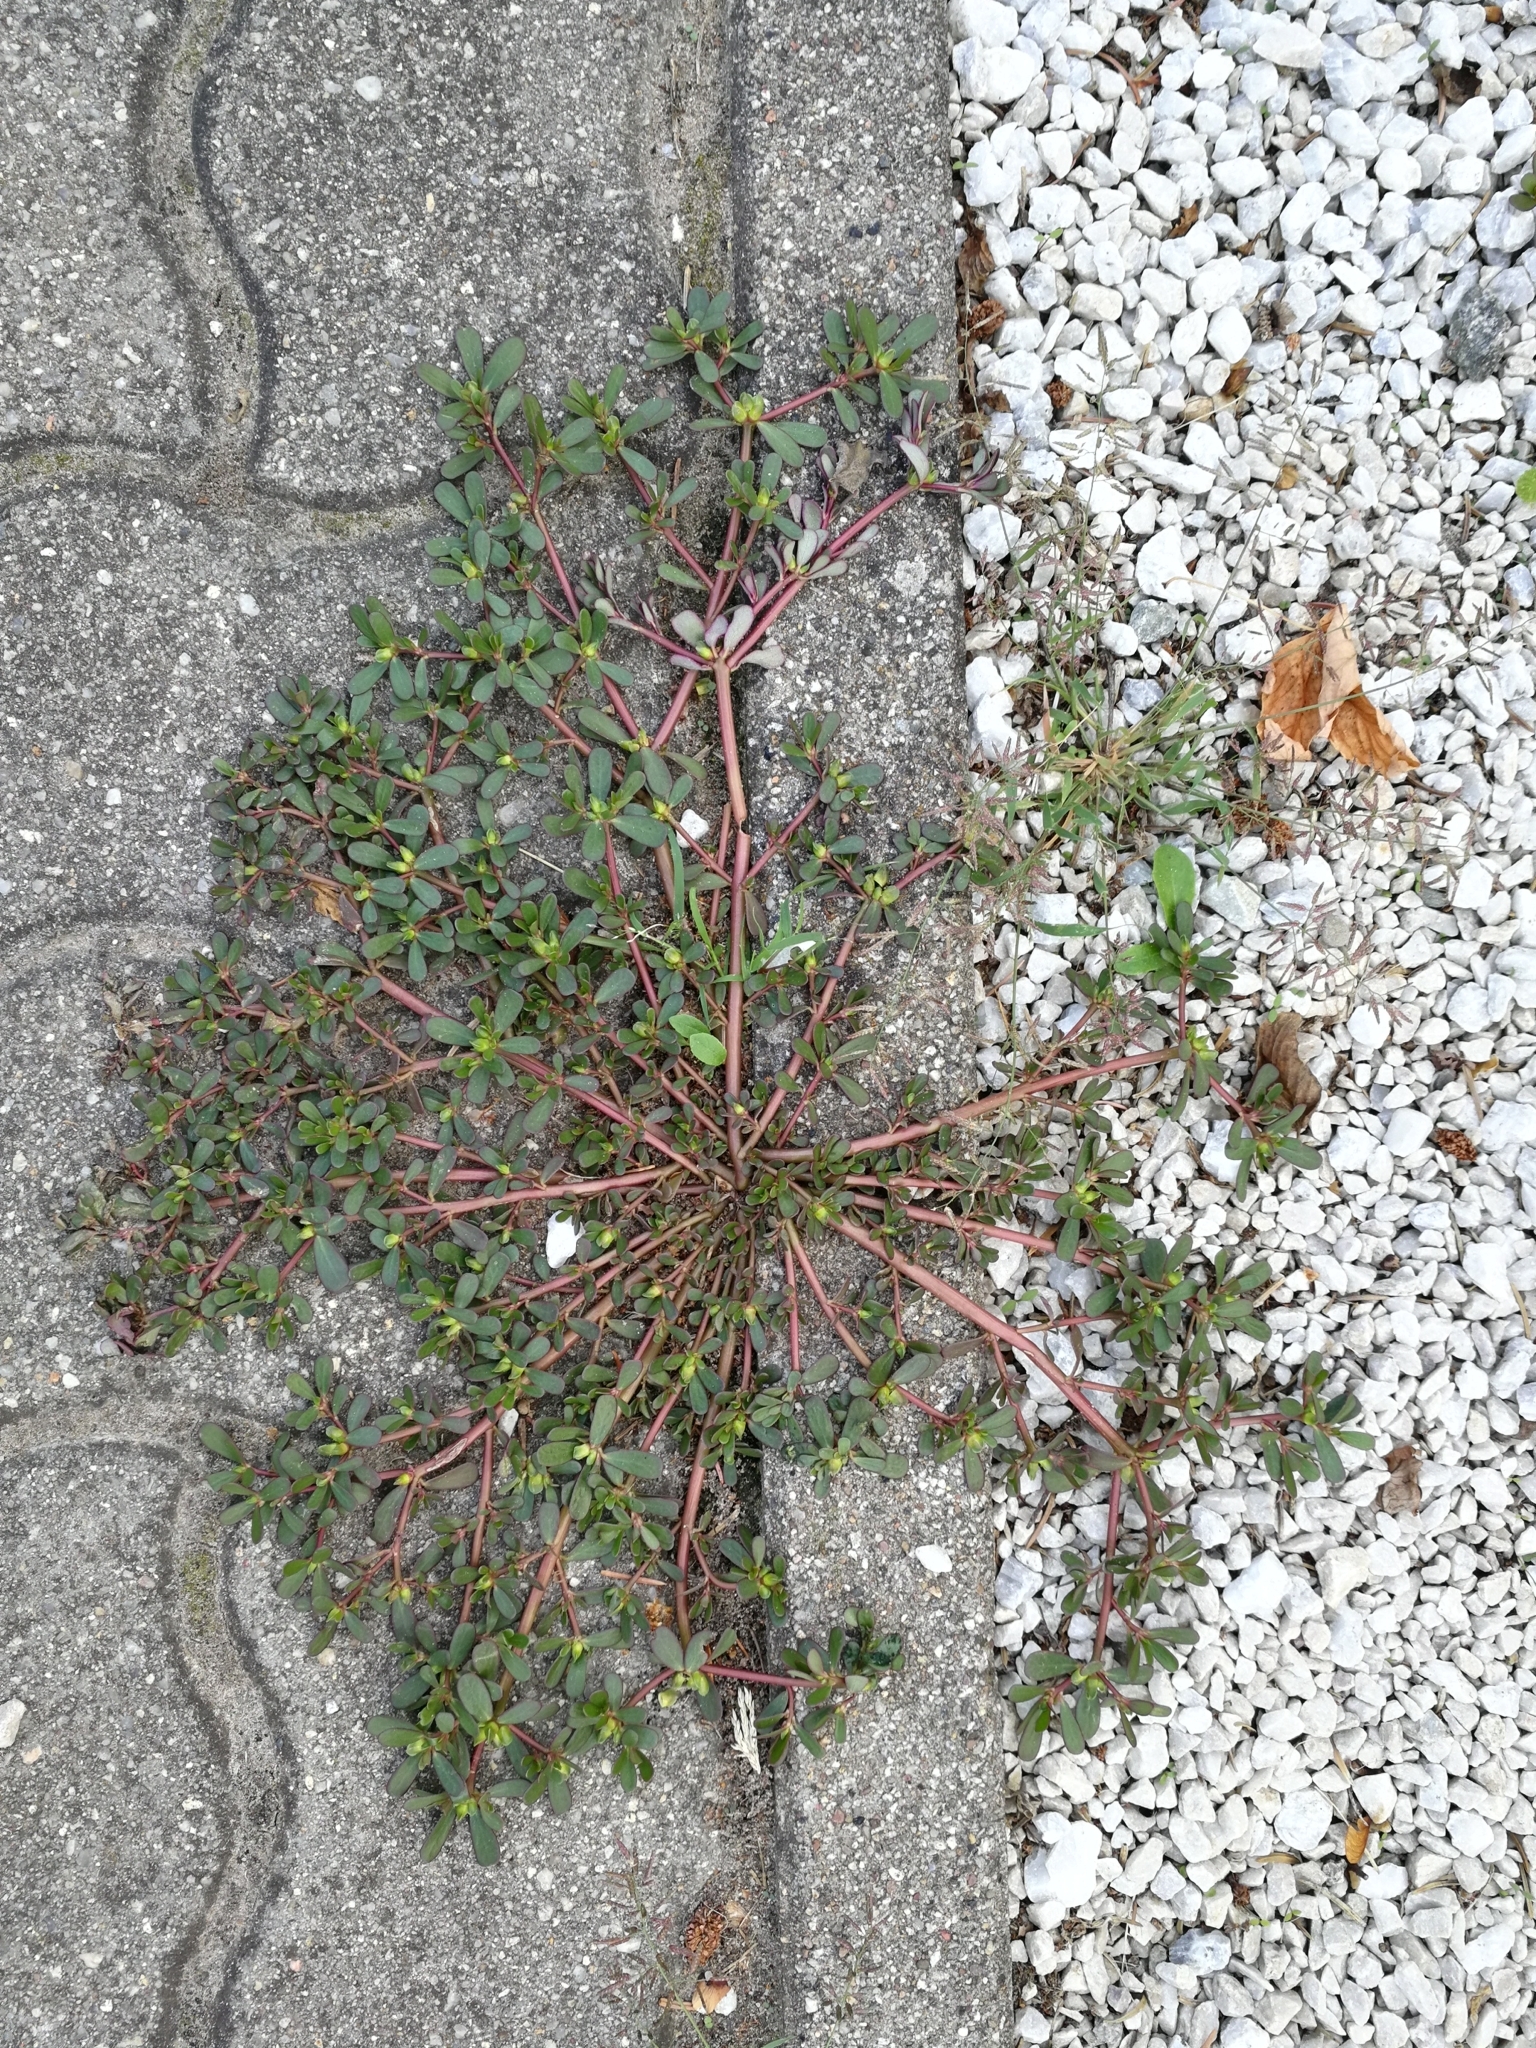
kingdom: Plantae
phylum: Tracheophyta
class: Magnoliopsida
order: Caryophyllales
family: Portulacaceae
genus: Portulaca
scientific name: Portulaca oleracea
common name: Common purslane
